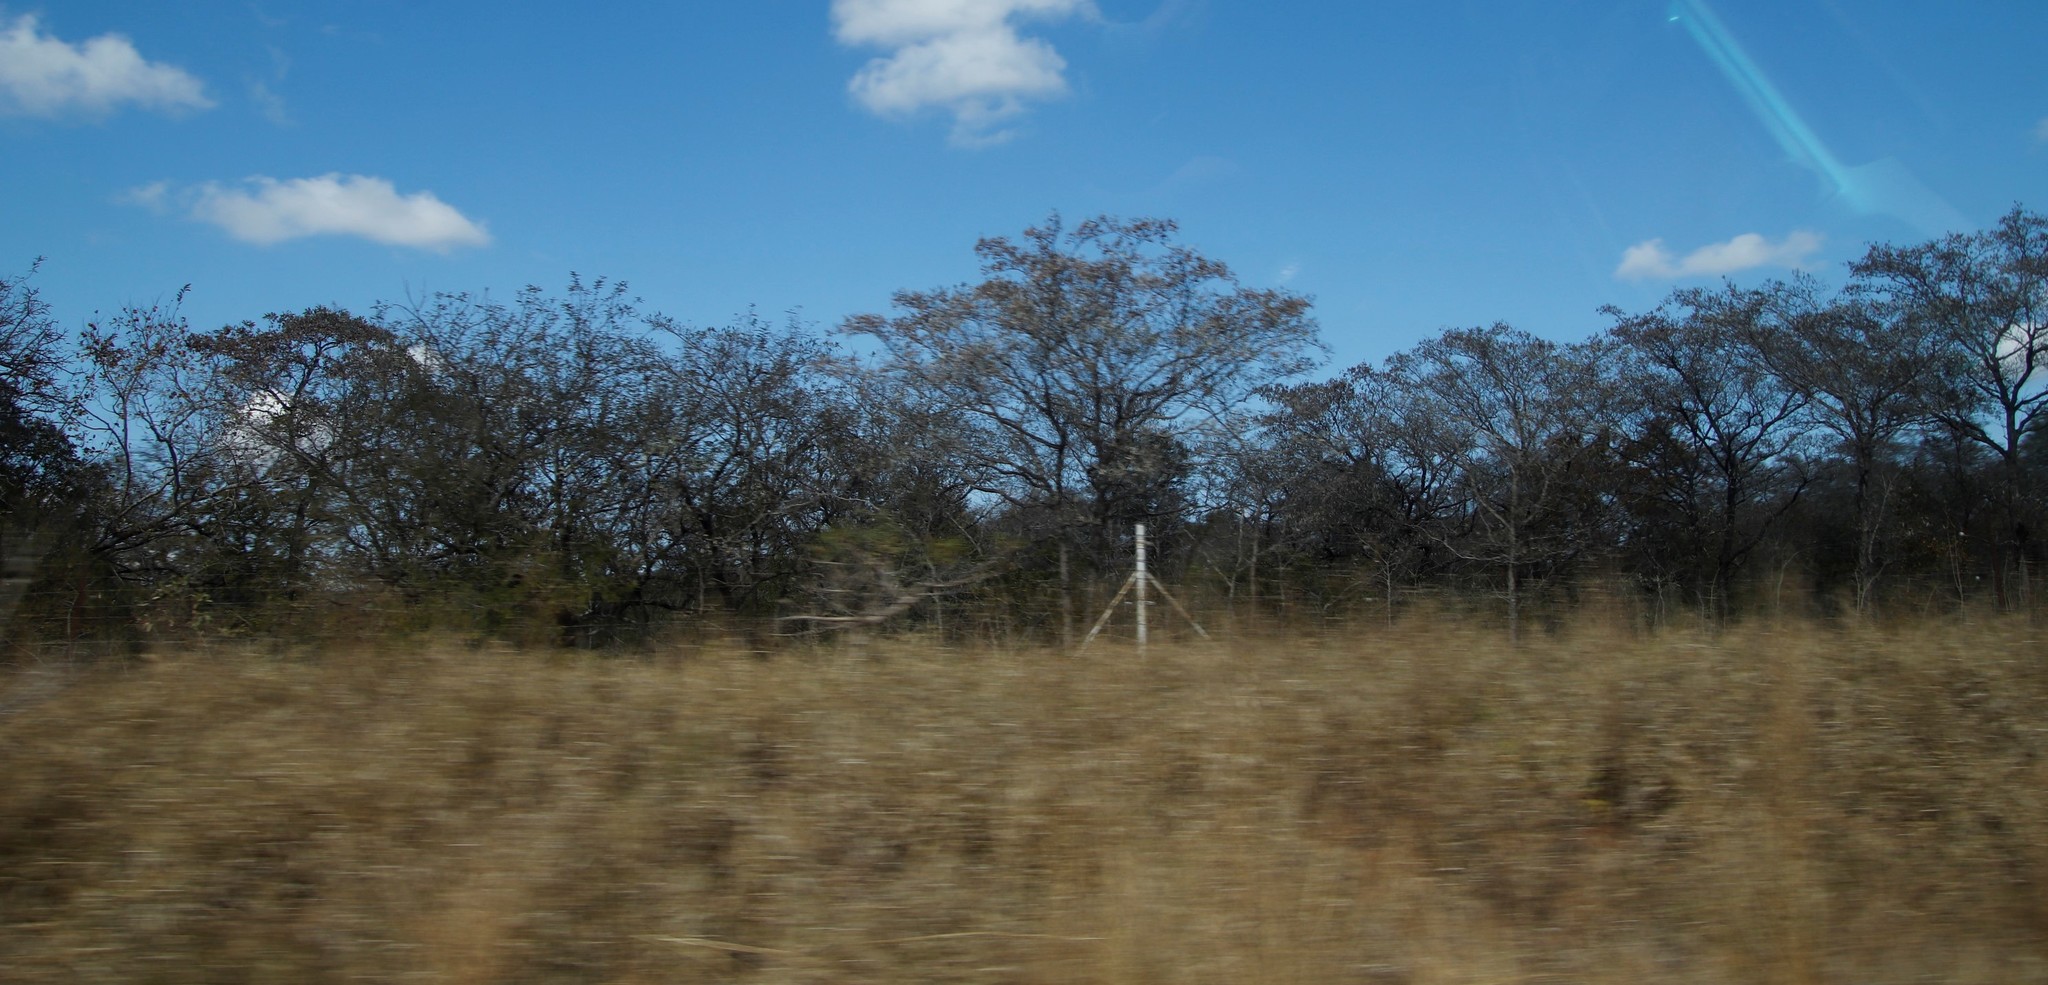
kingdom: Plantae
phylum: Tracheophyta
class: Magnoliopsida
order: Myrtales
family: Combretaceae
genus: Terminalia
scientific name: Terminalia sericea
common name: Clusterleaf
